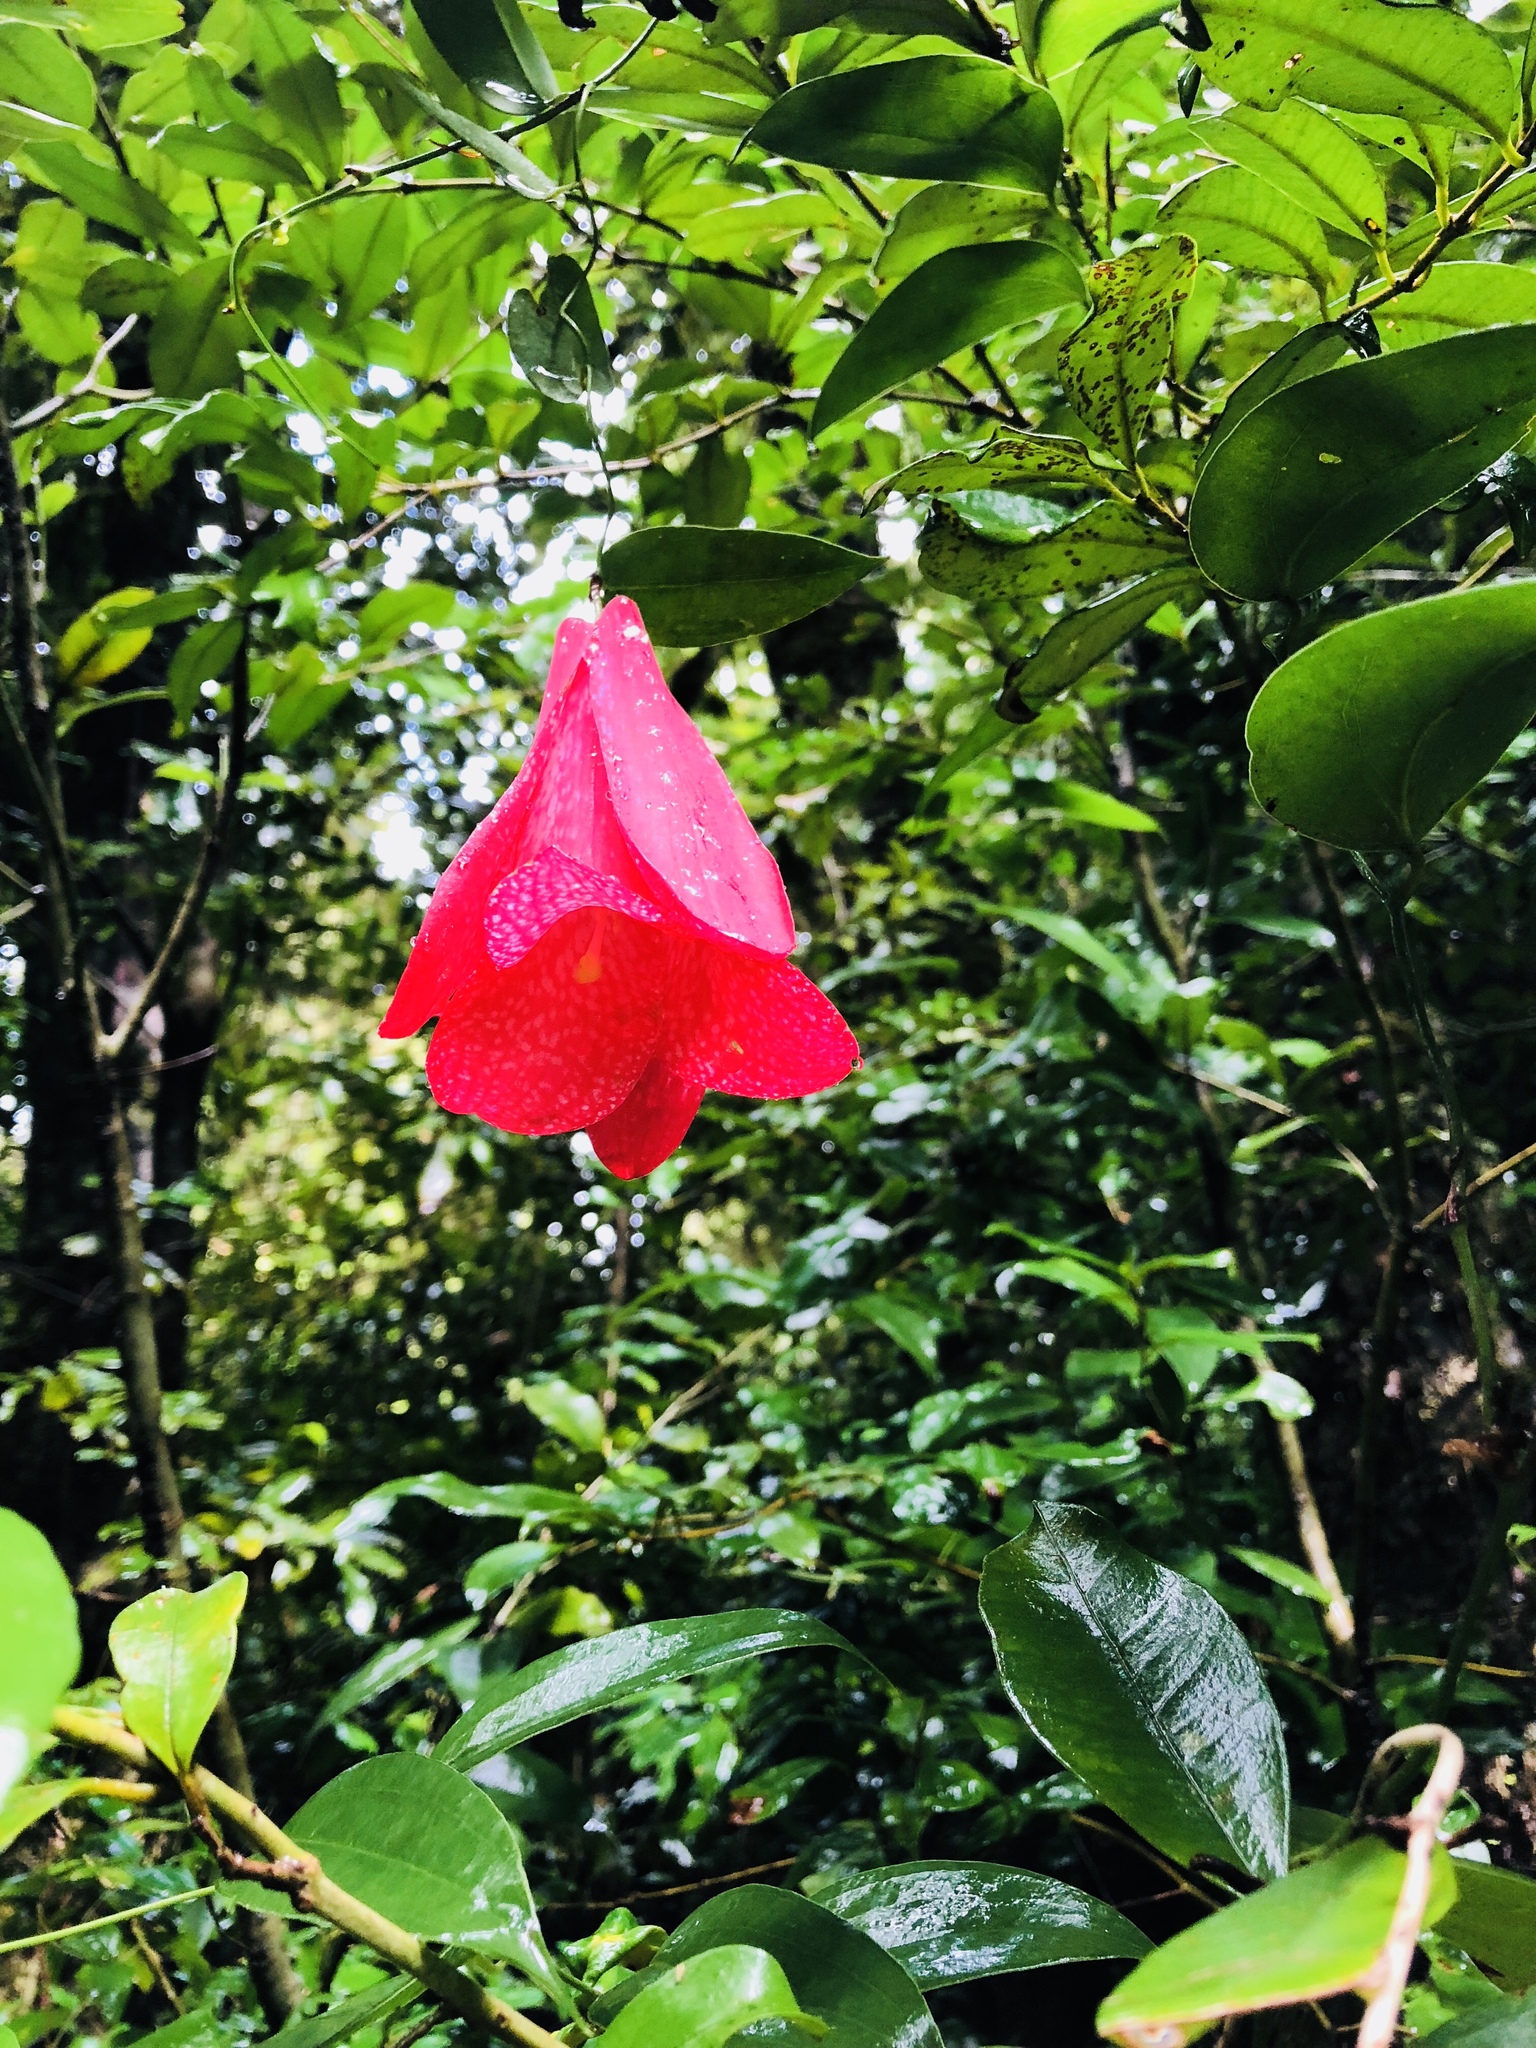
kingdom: Plantae
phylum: Tracheophyta
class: Liliopsida
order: Liliales
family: Philesiaceae
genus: Lapageria
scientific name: Lapageria rosea
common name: Chilean-bellflower
